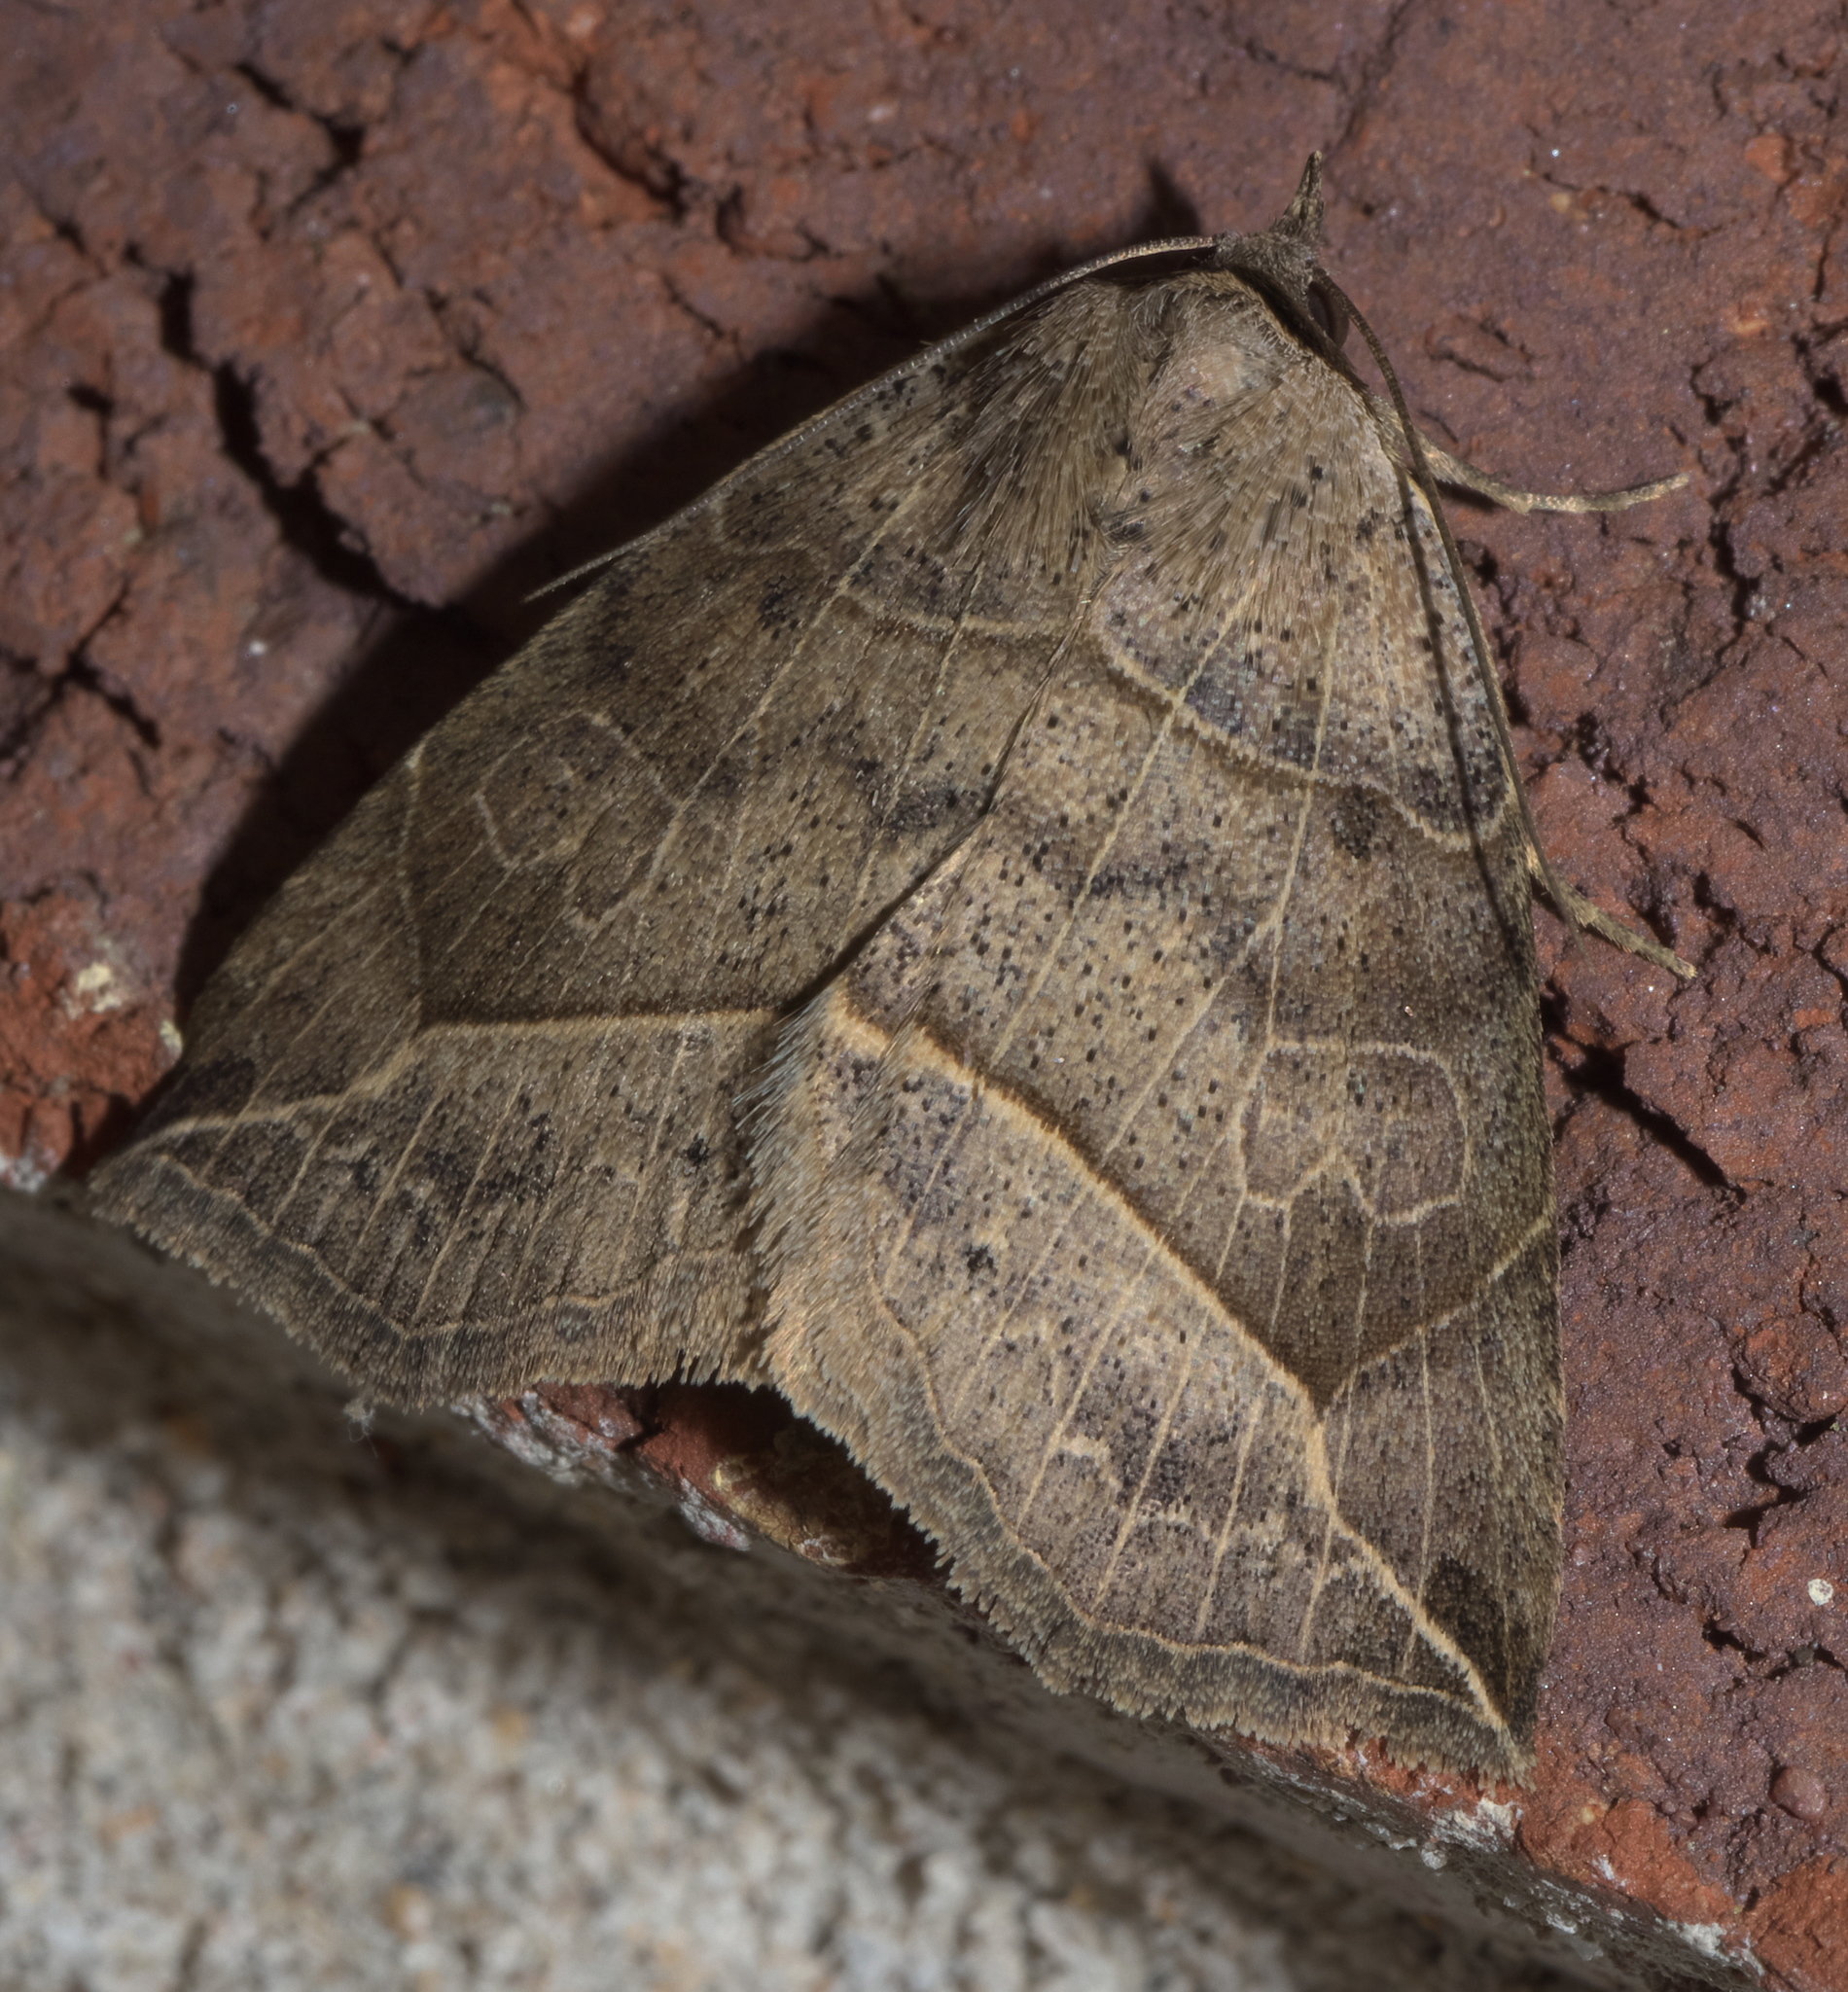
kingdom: Animalia
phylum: Arthropoda
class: Insecta
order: Lepidoptera
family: Erebidae
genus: Isogona
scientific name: Isogona tenuis
